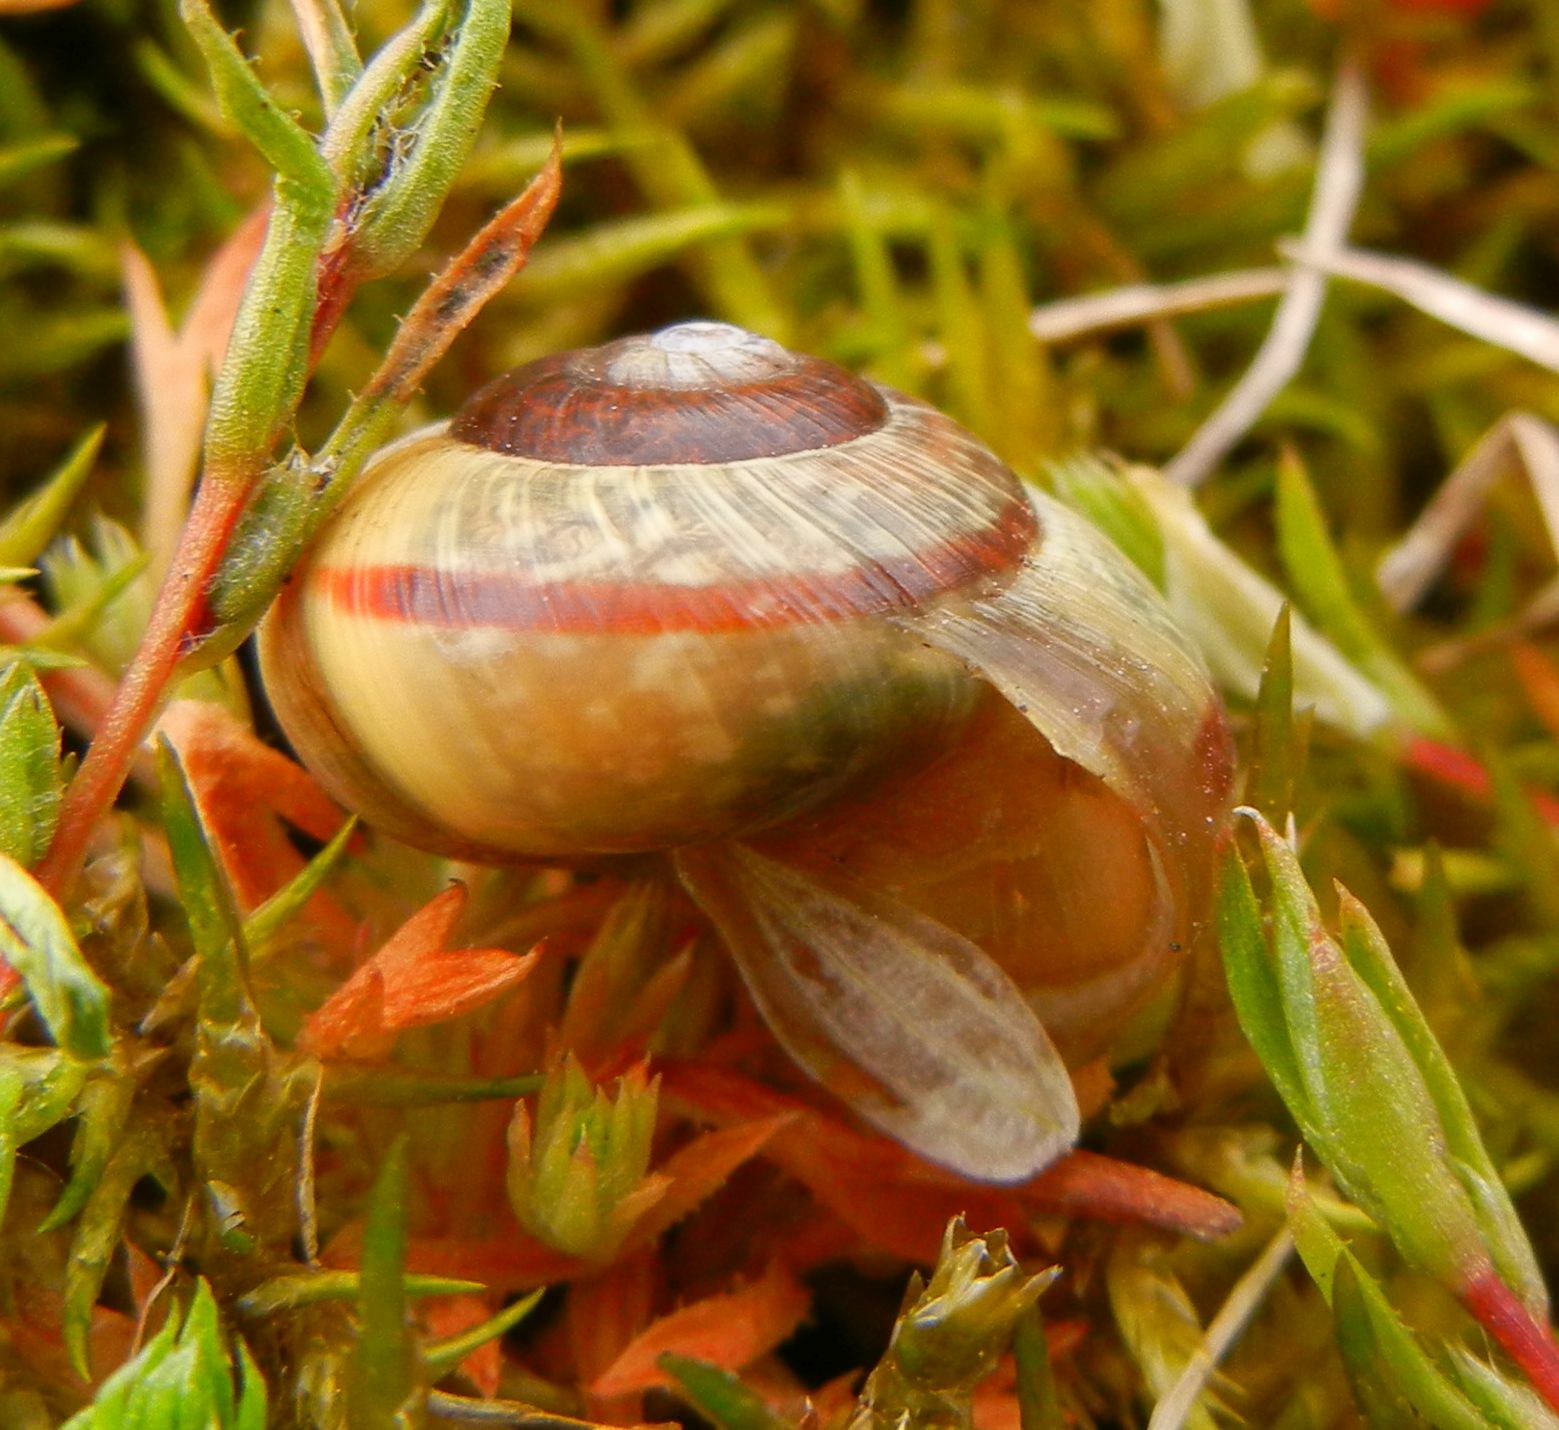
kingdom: Animalia
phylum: Mollusca
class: Gastropoda
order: Stylommatophora
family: Helicidae
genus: Arianta
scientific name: Arianta arbustorum
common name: Copse snail
